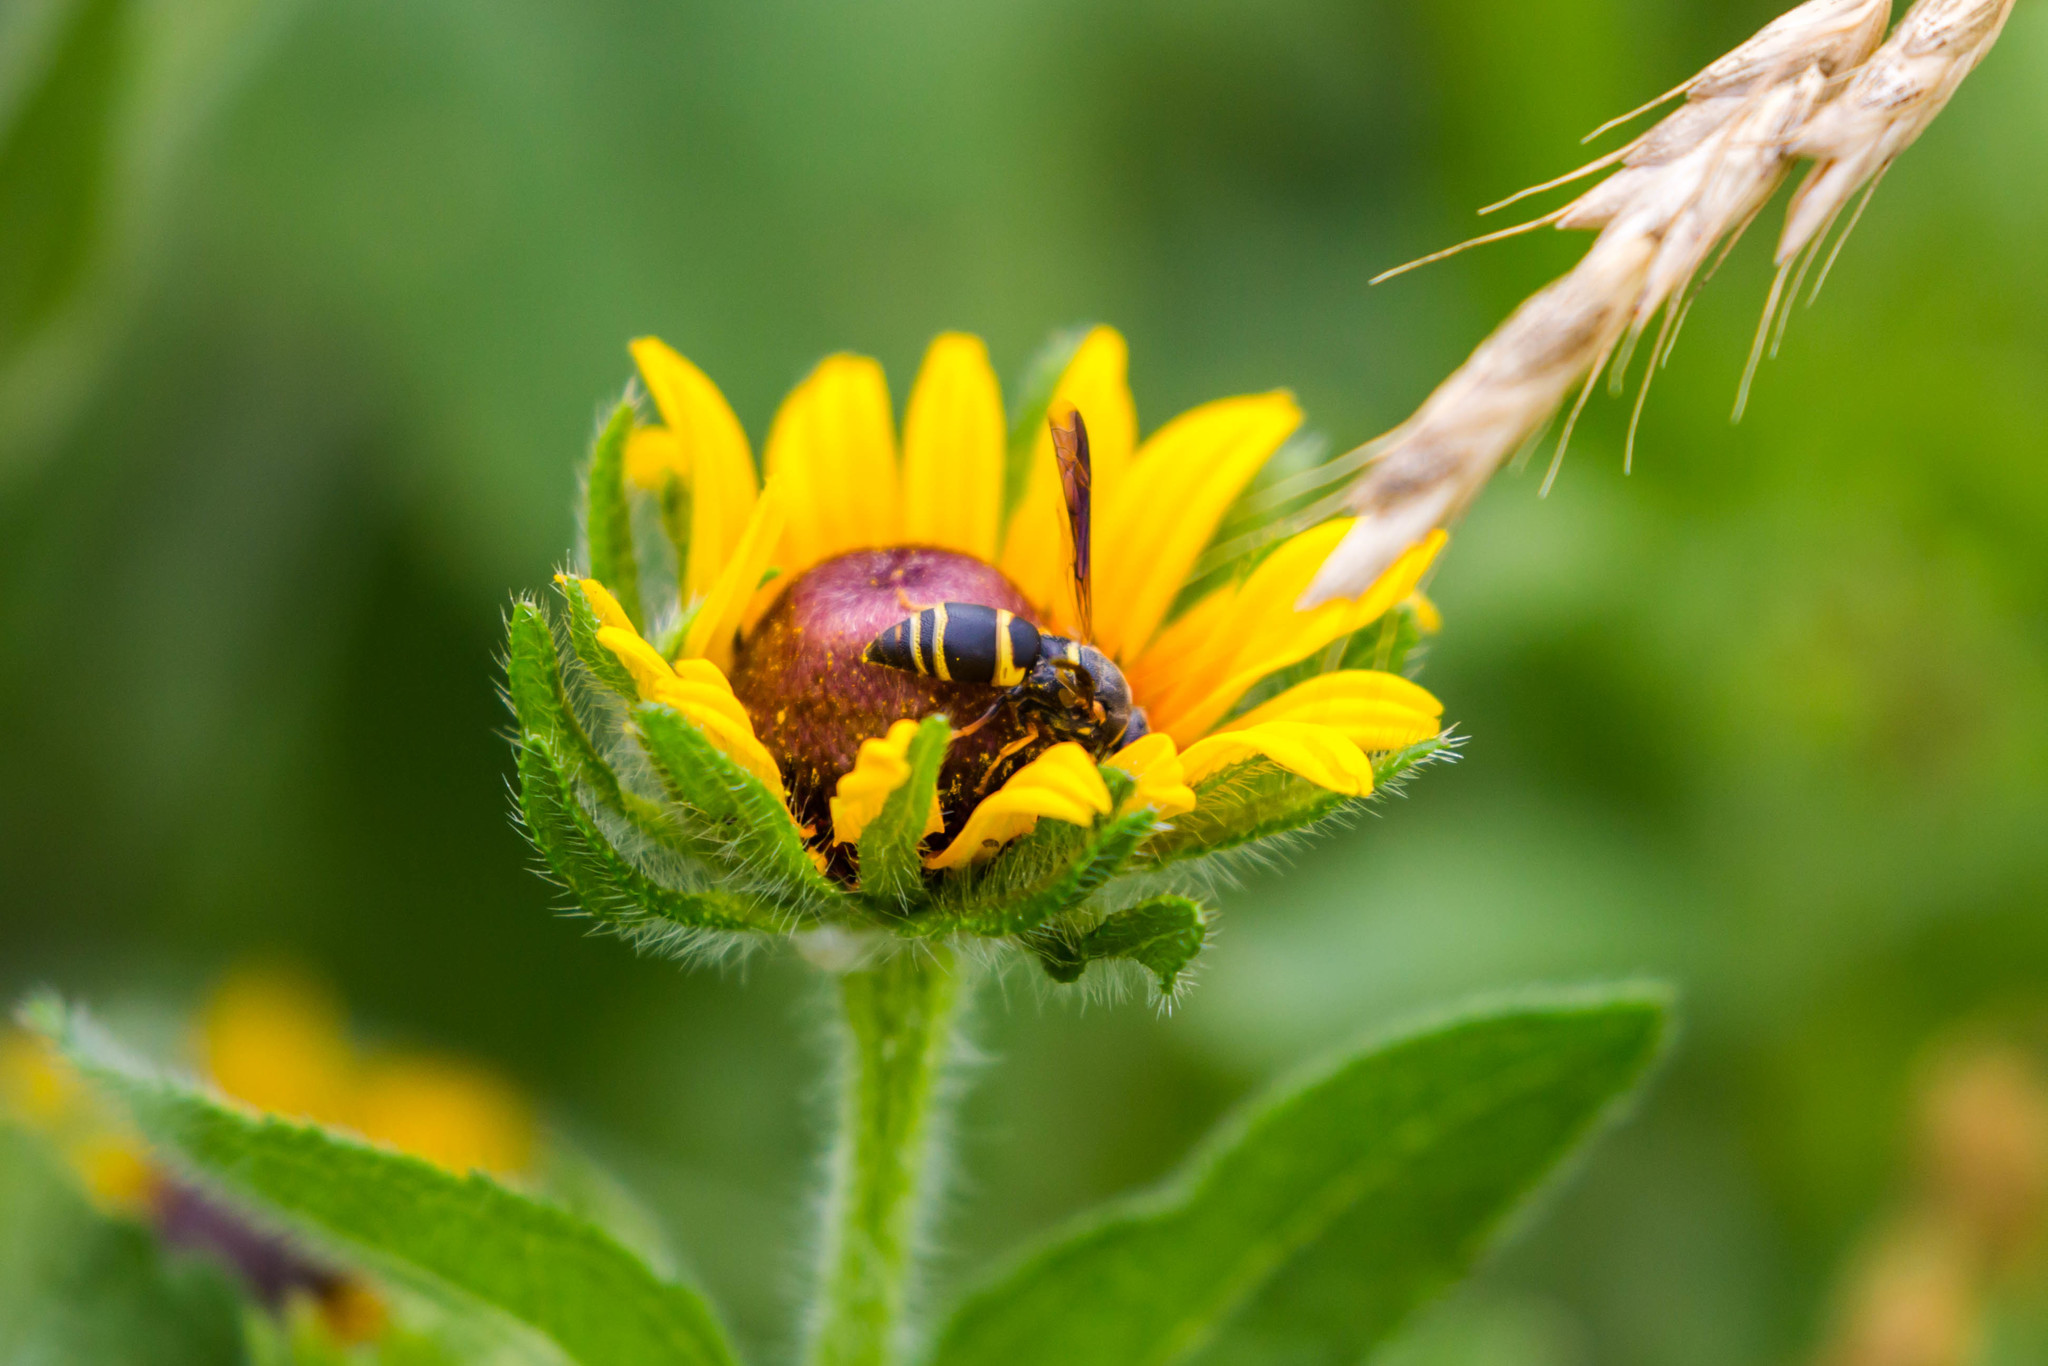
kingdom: Animalia
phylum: Arthropoda
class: Insecta
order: Hymenoptera
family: Eumenidae
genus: Euodynerus
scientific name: Euodynerus hidalgo
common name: Wasp
